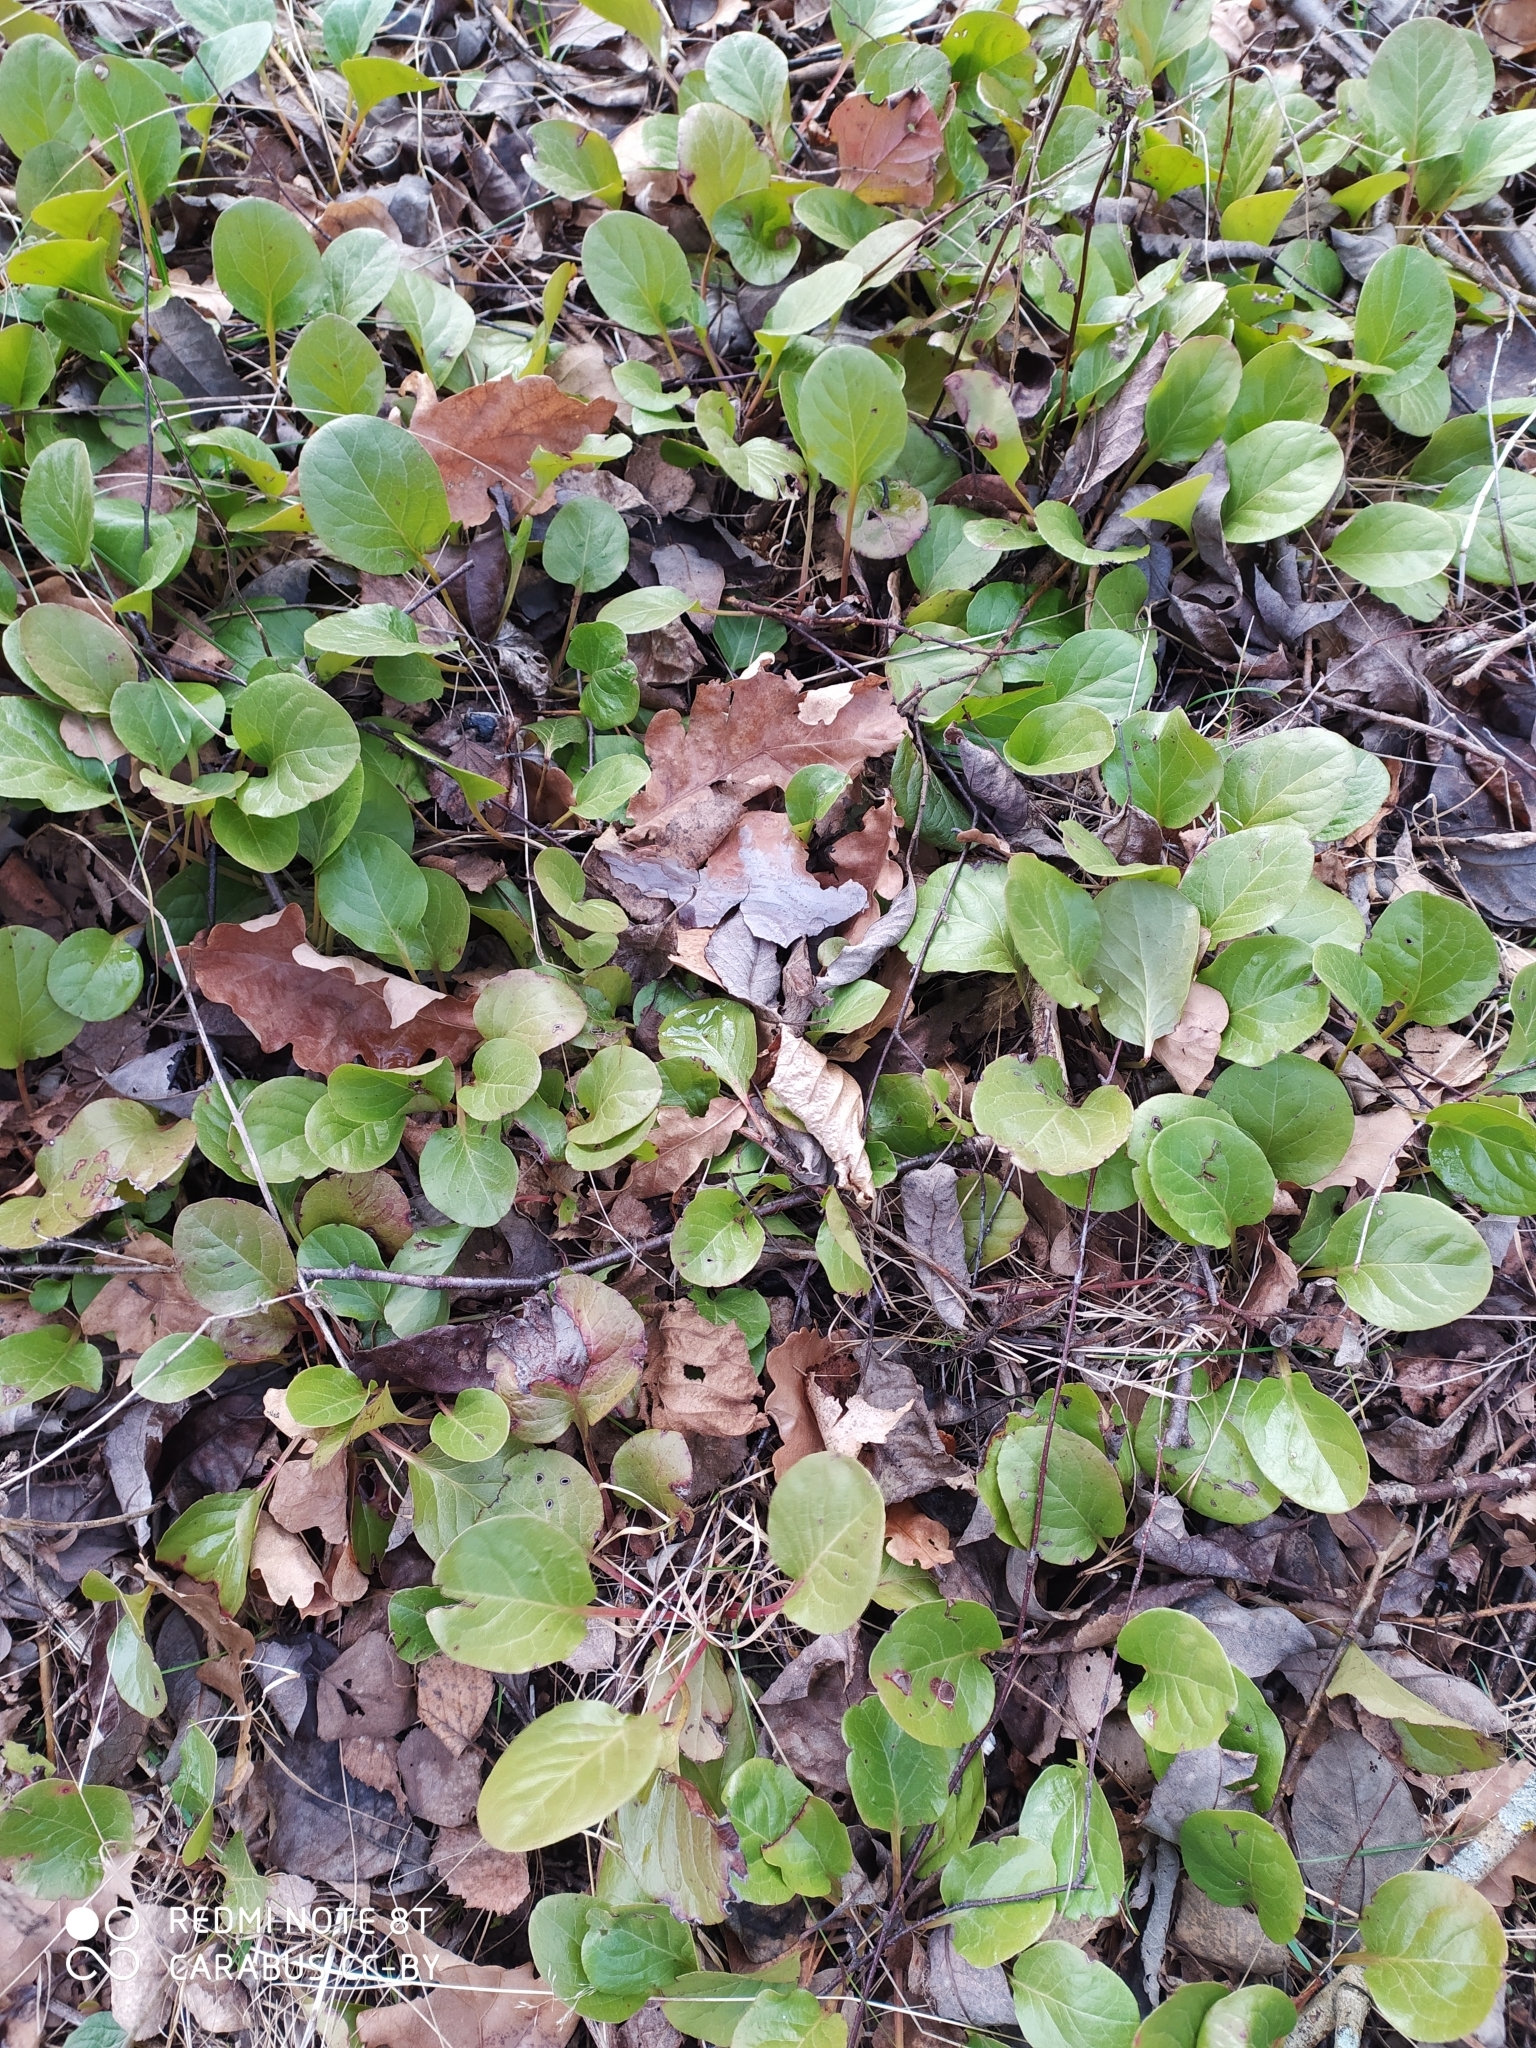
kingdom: Plantae
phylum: Tracheophyta
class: Magnoliopsida
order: Ericales
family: Ericaceae
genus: Pyrola
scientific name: Pyrola rotundifolia
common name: Round-leaved wintergreen
